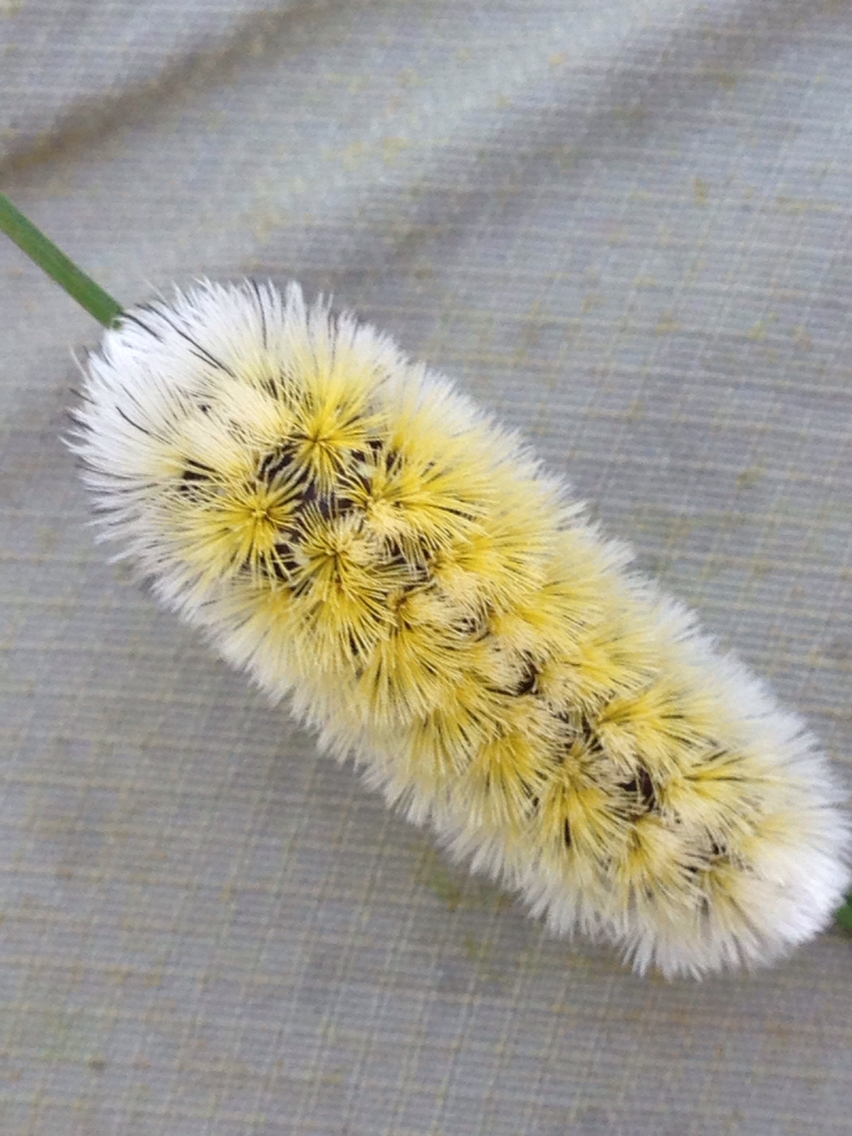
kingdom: Animalia
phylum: Arthropoda
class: Insecta
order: Lepidoptera
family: Erebidae
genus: Ctenucha
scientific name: Ctenucha virginica
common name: Virginia ctenucha moth
